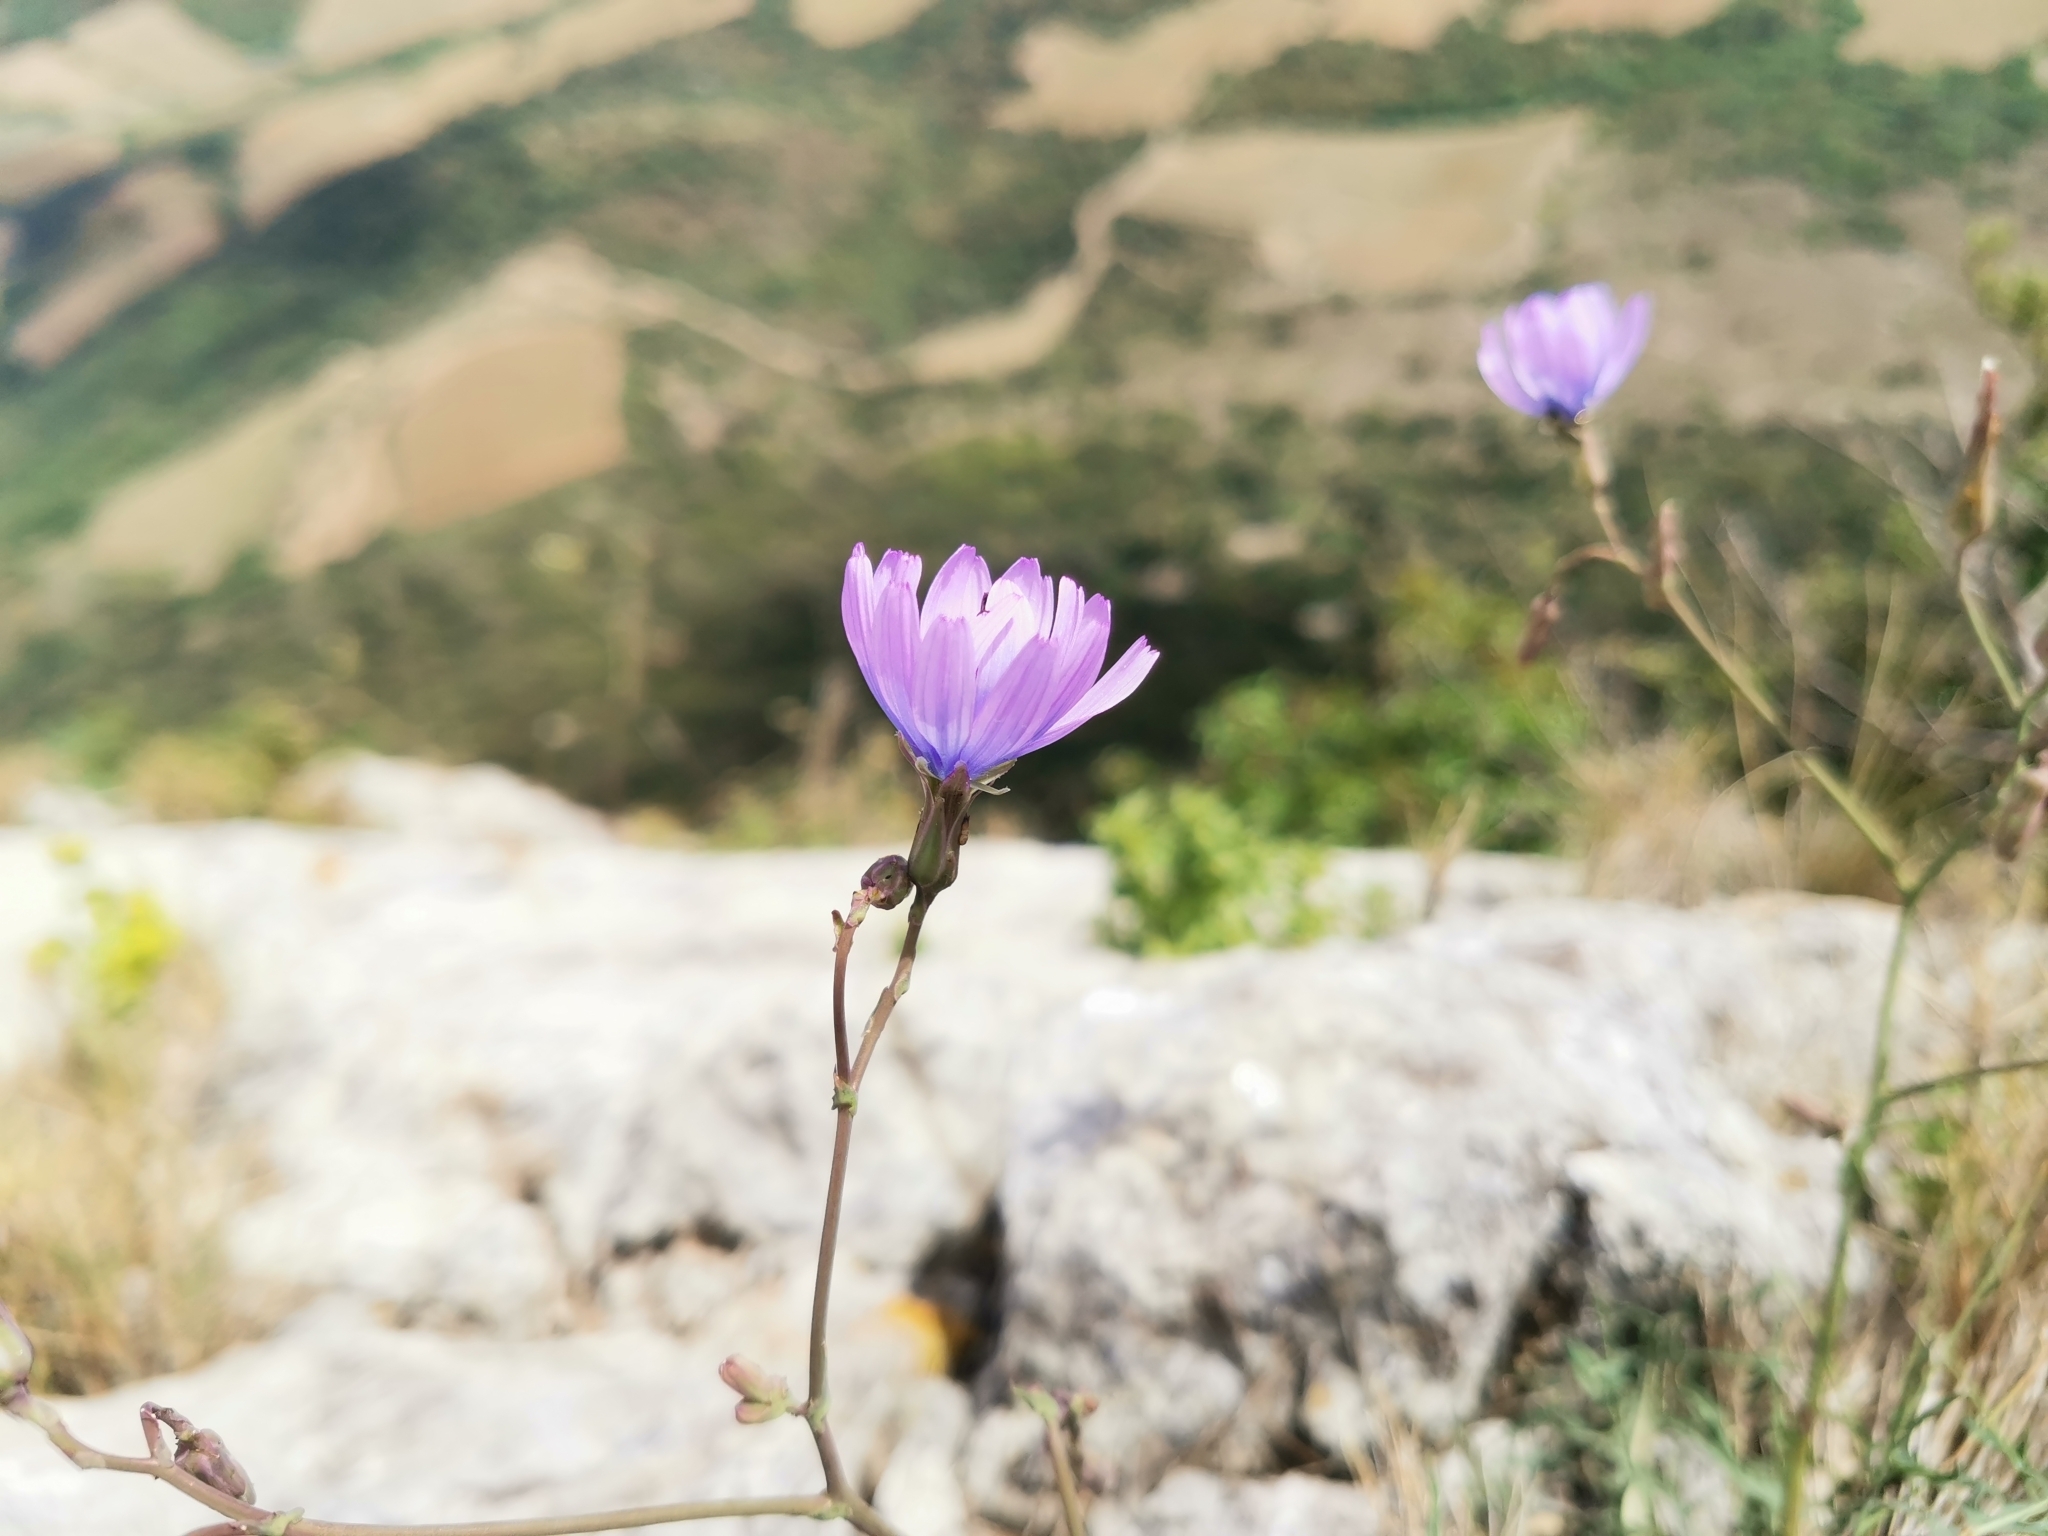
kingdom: Plantae
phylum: Tracheophyta
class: Magnoliopsida
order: Asterales
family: Asteraceae
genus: Lactuca
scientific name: Lactuca perennis
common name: Mountain lettuce
